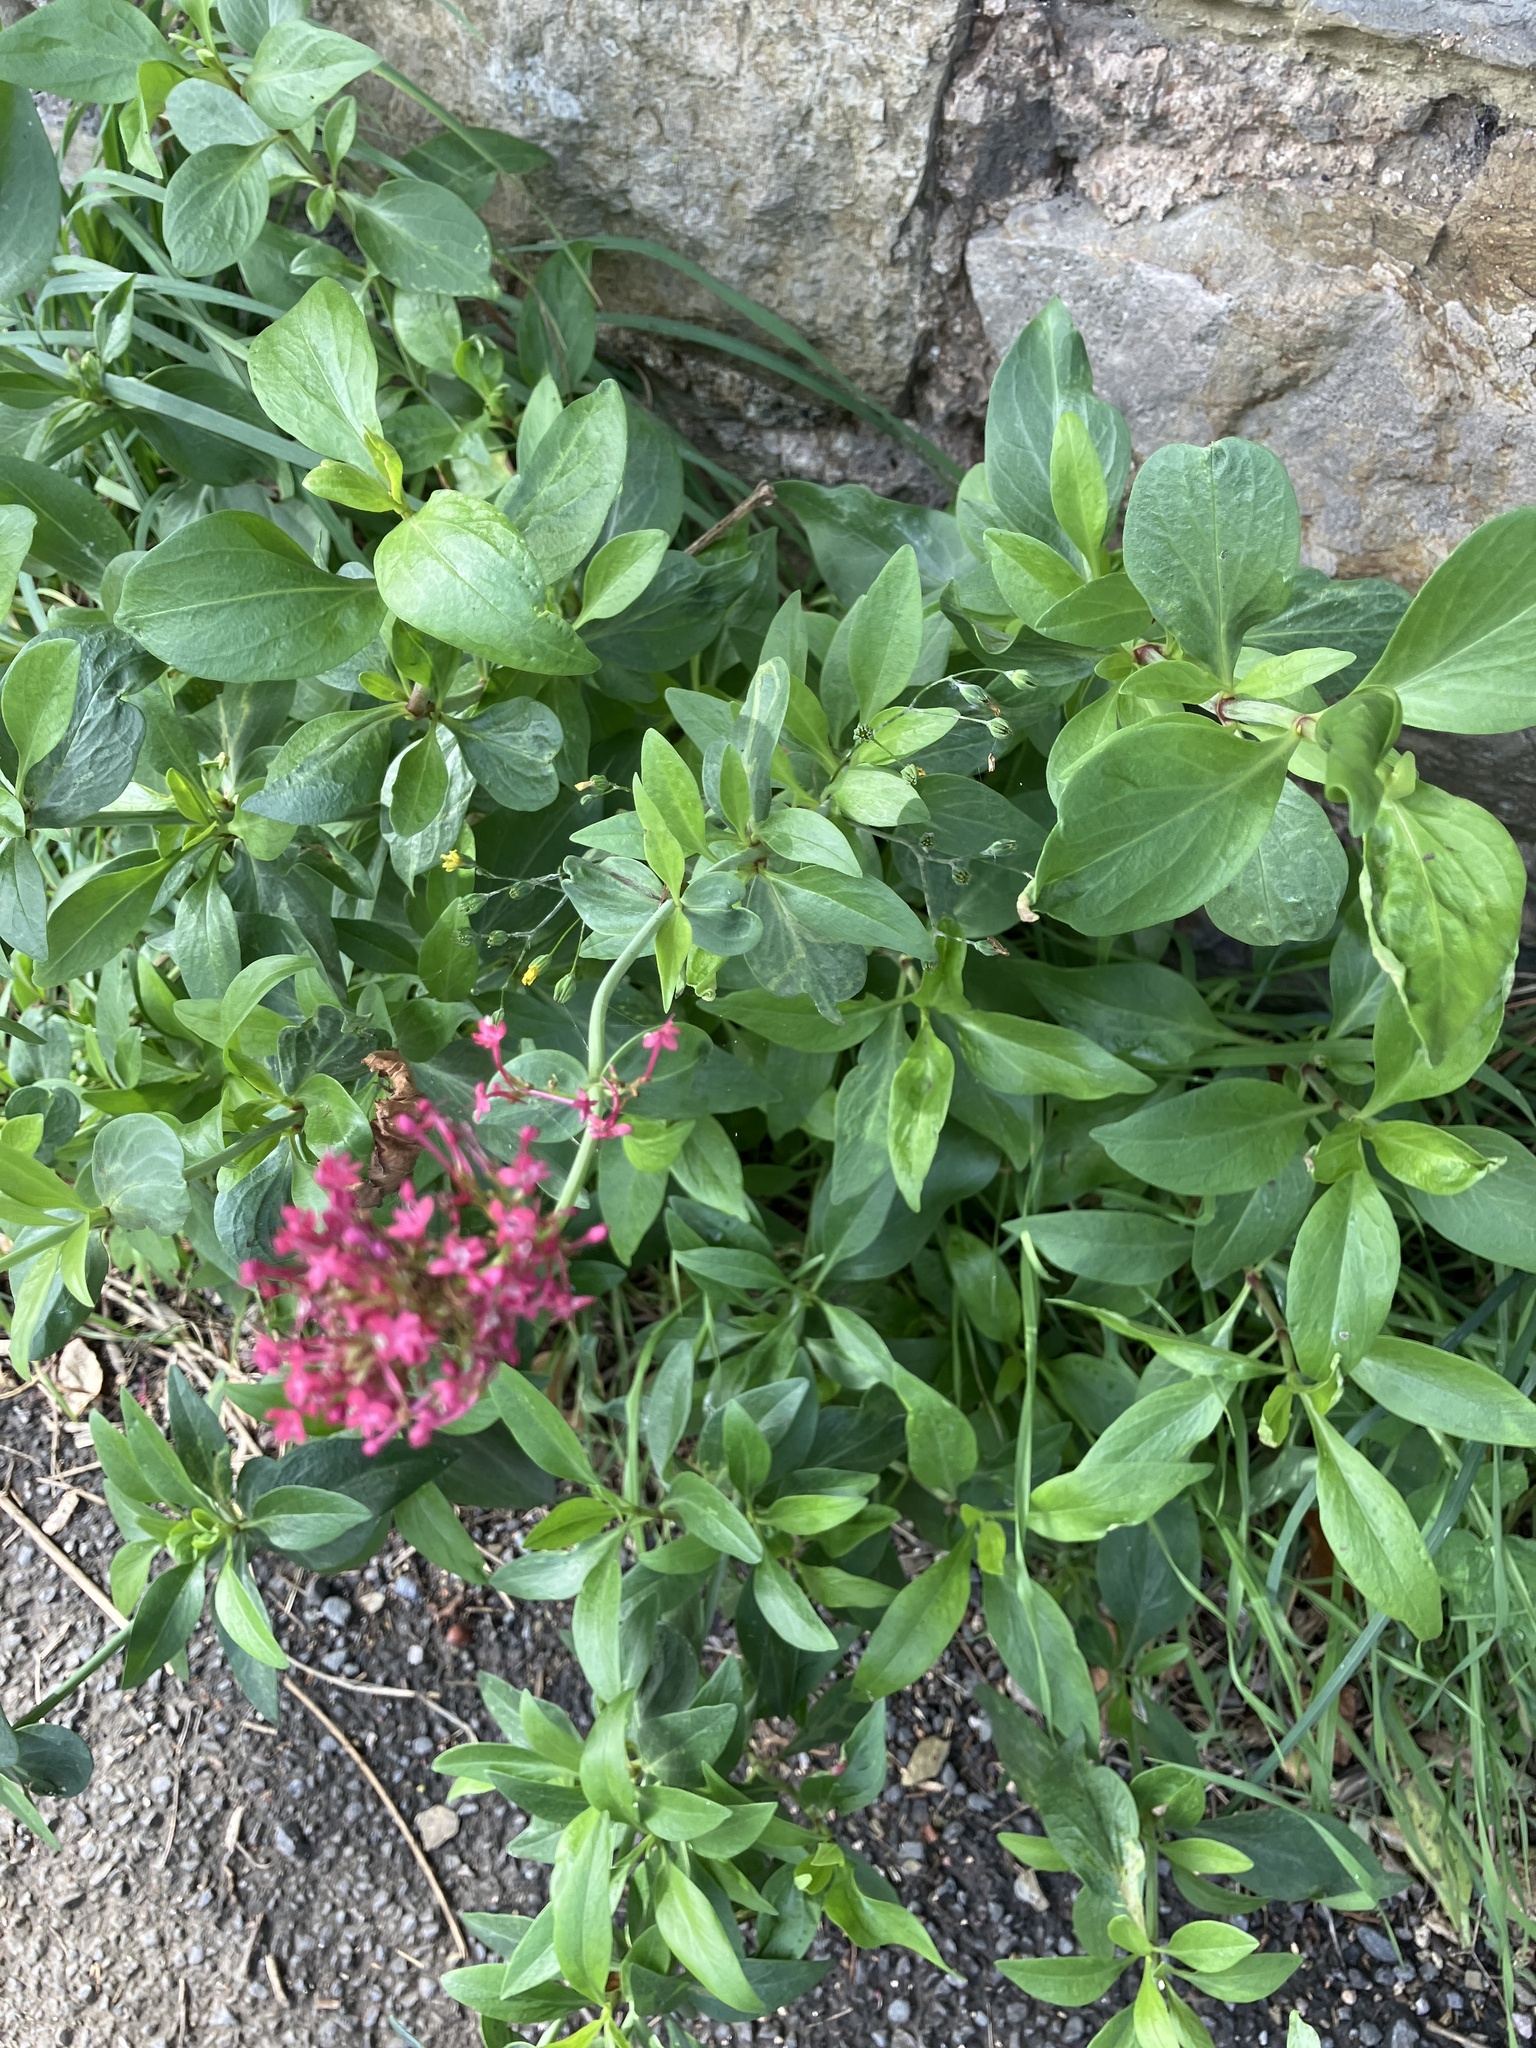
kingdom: Plantae
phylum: Tracheophyta
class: Magnoliopsida
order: Dipsacales
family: Caprifoliaceae
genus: Centranthus
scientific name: Centranthus ruber
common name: Red valerian
